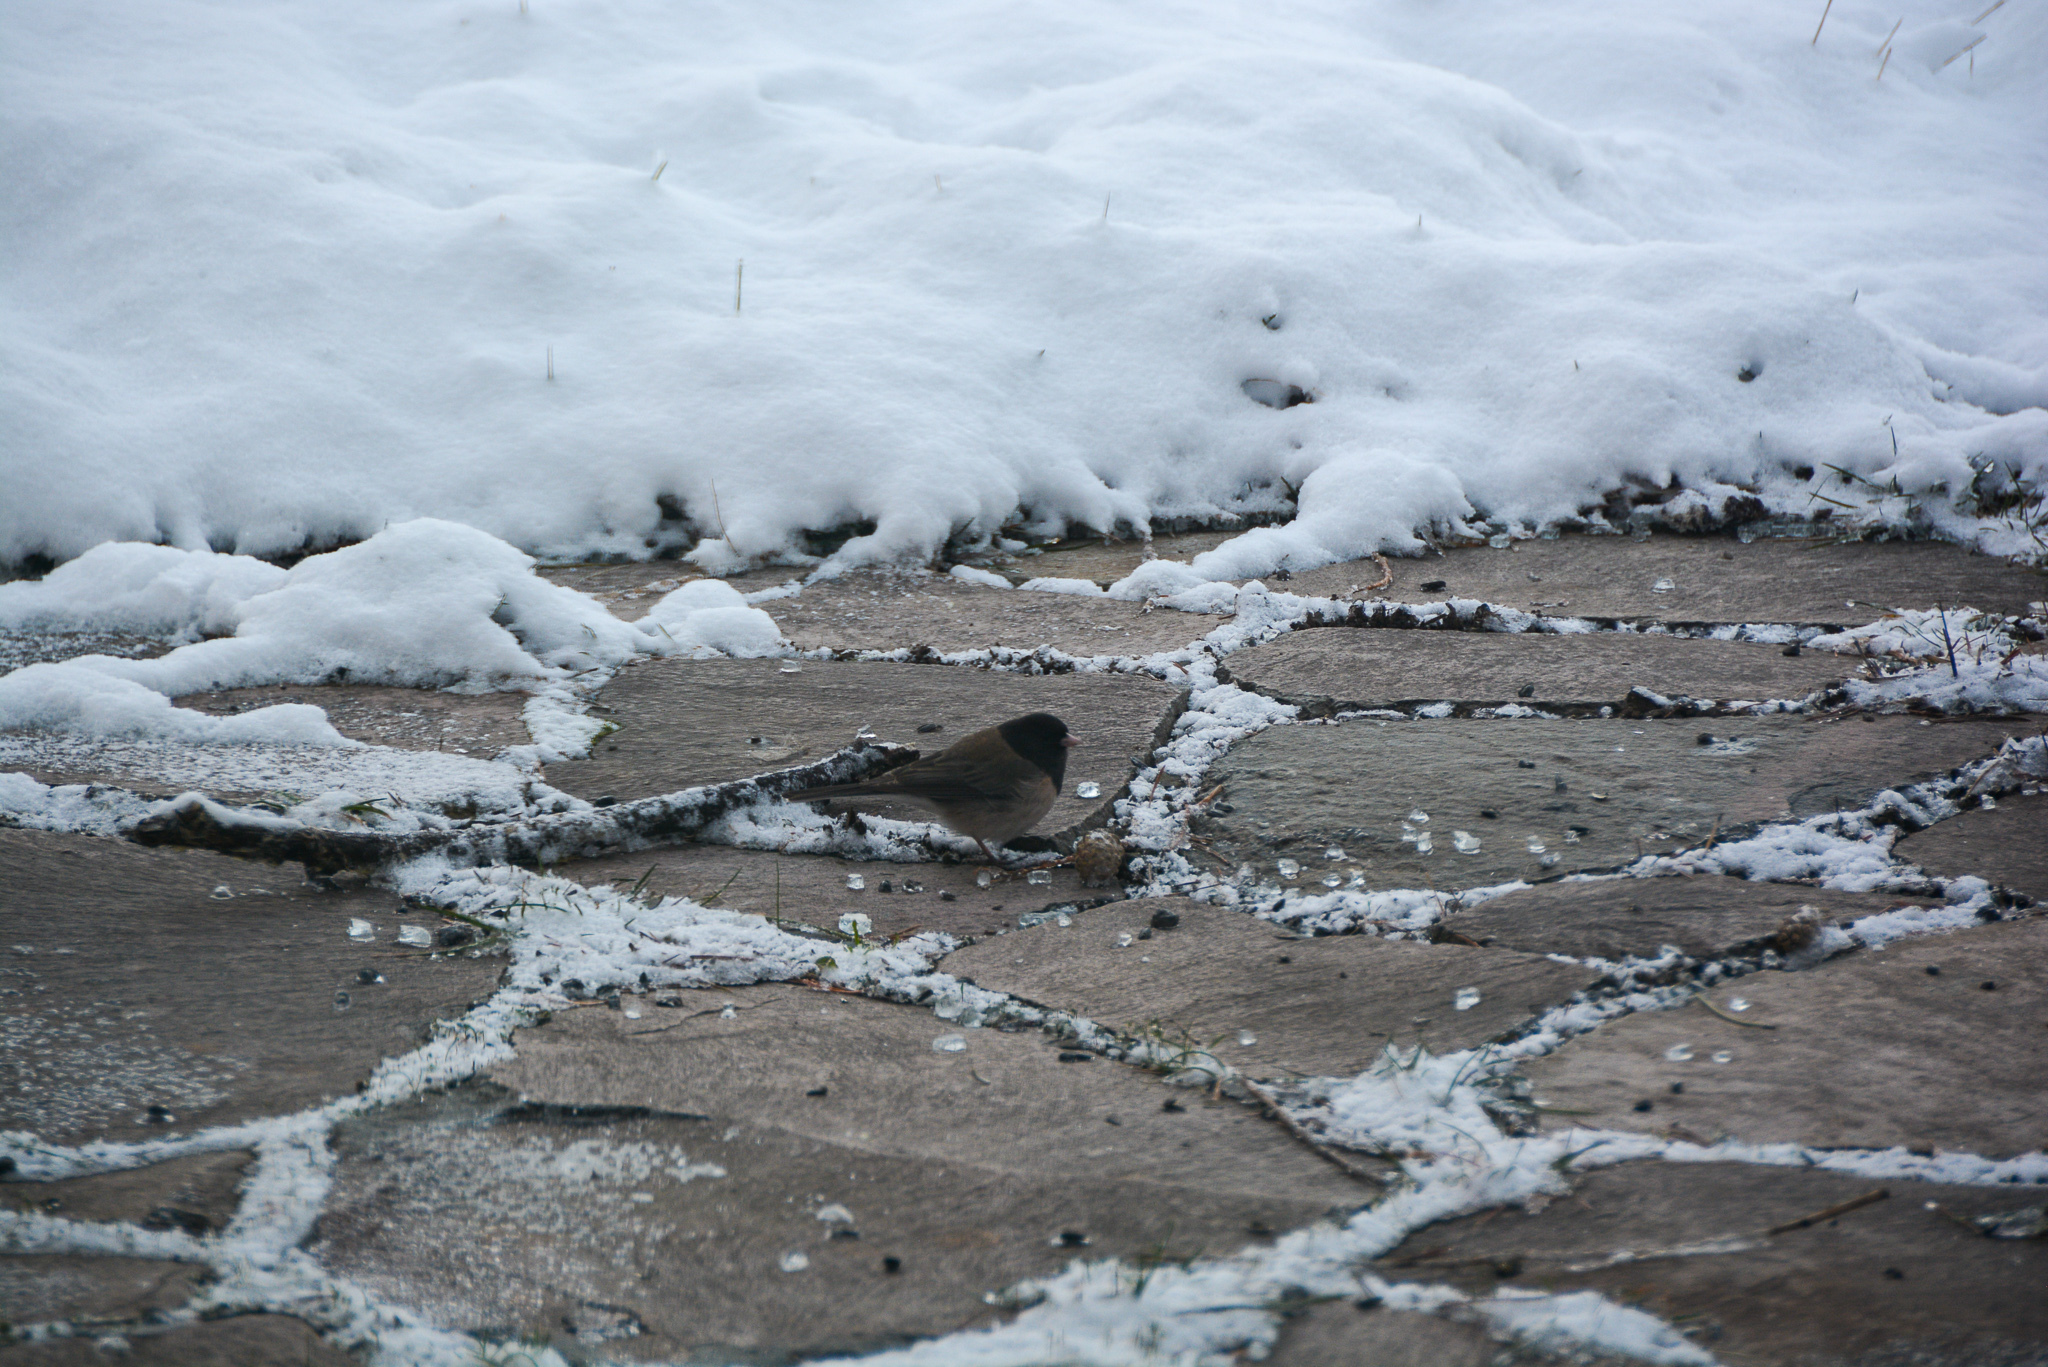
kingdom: Animalia
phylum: Chordata
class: Aves
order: Passeriformes
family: Passerellidae
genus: Junco
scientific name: Junco hyemalis
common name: Dark-eyed junco
